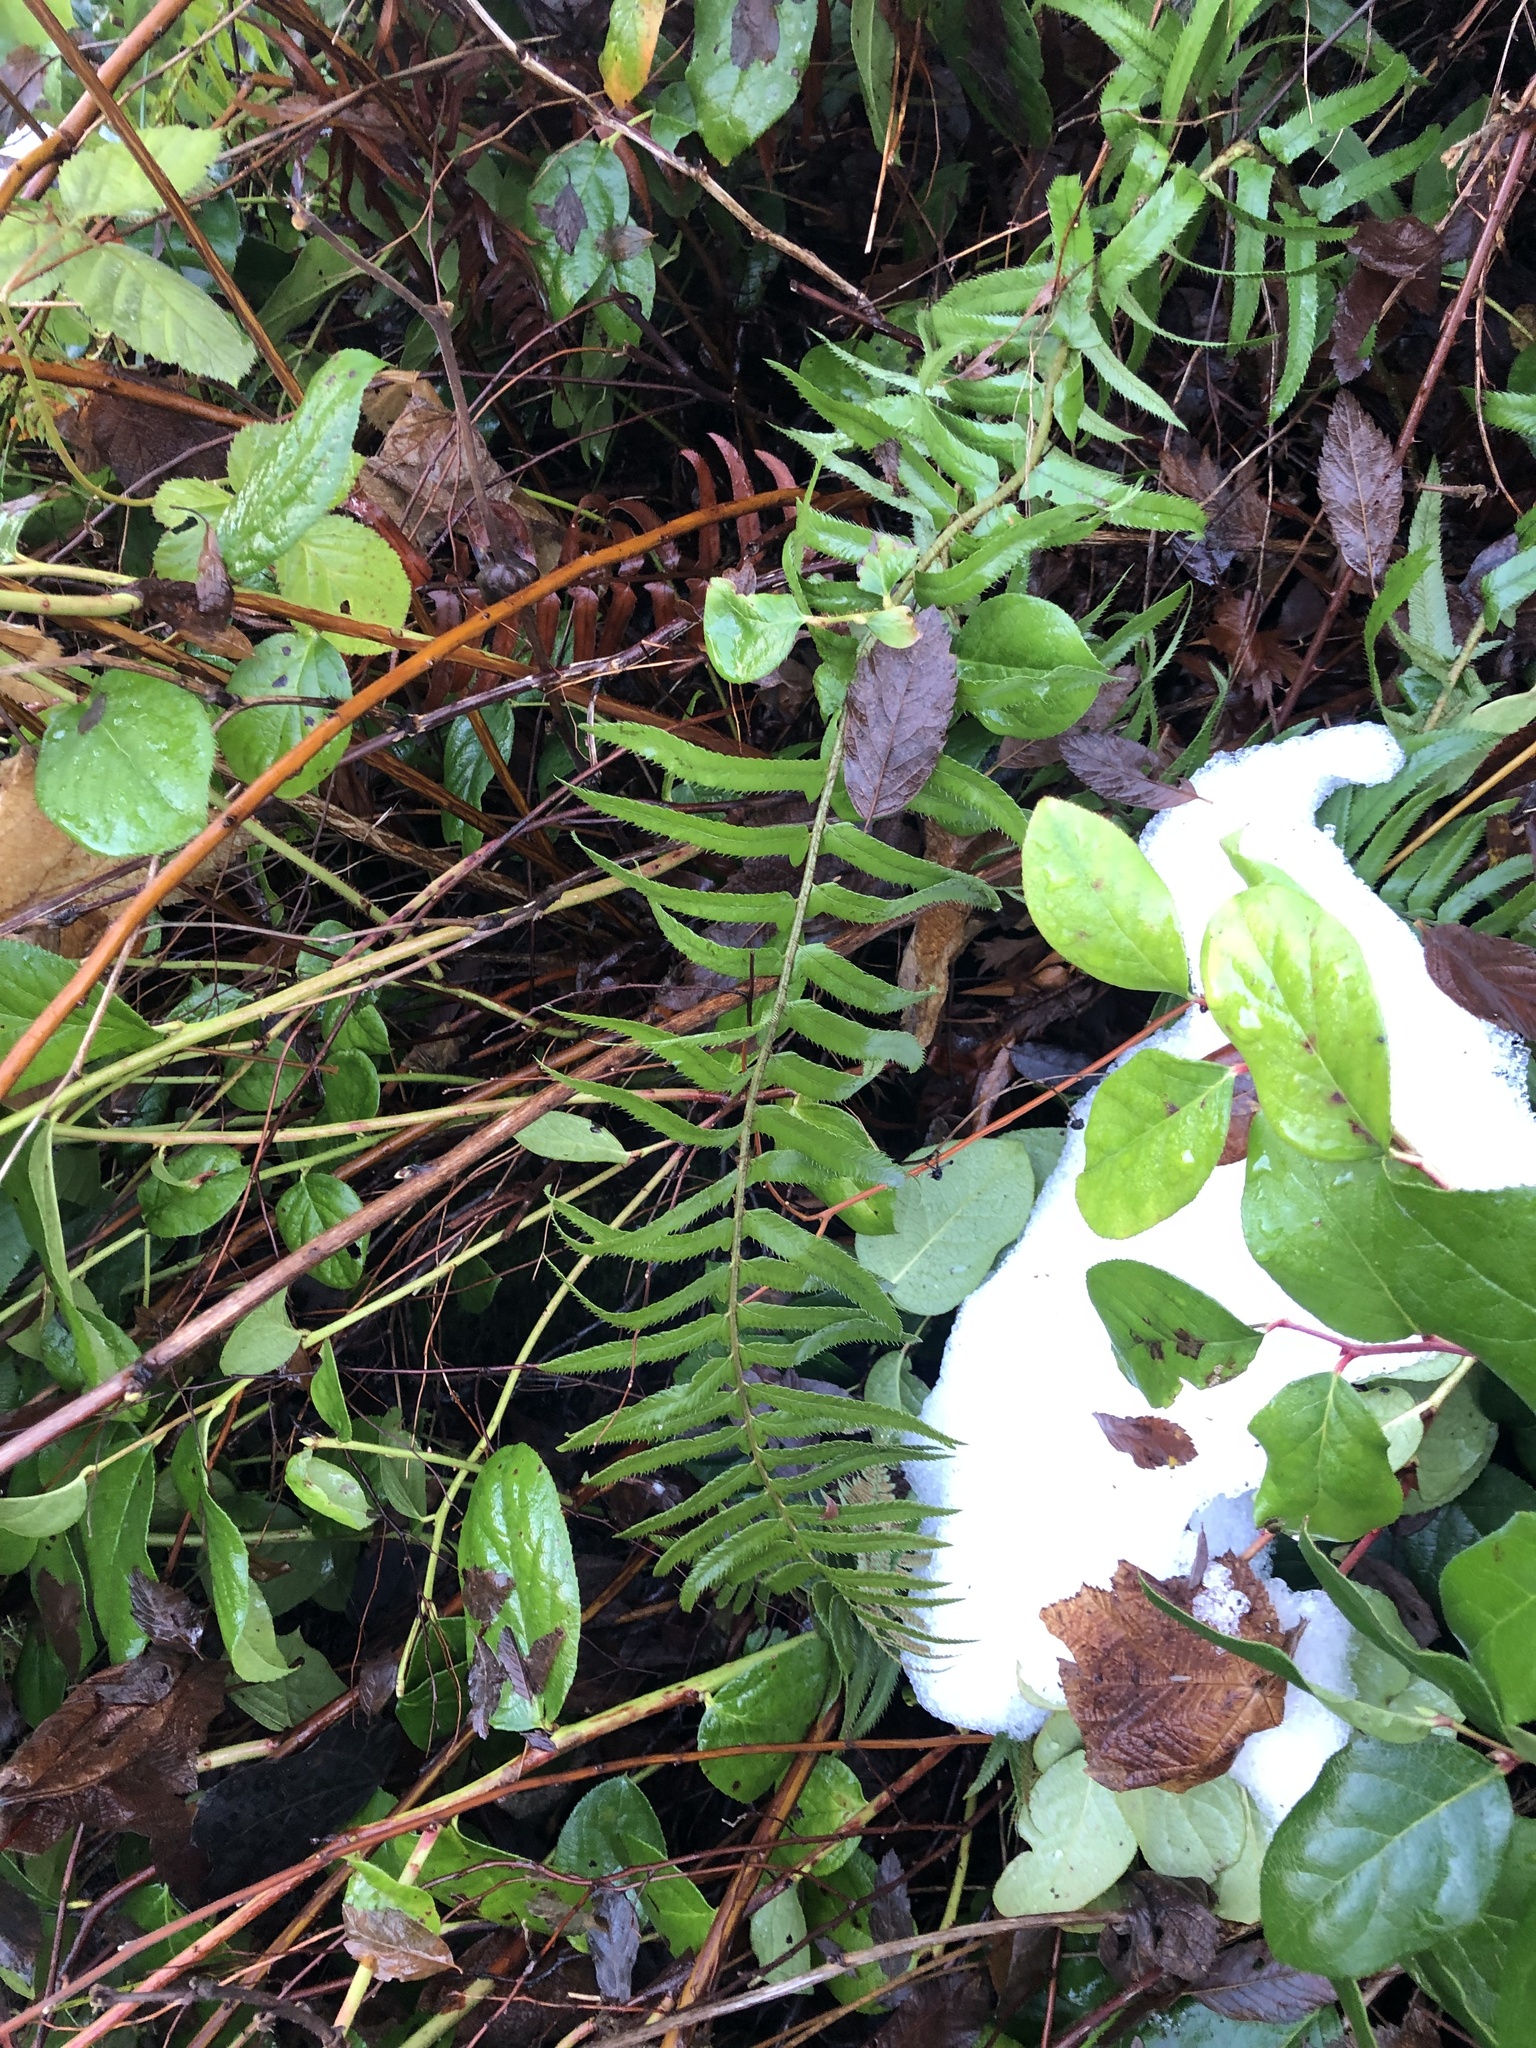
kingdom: Plantae
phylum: Tracheophyta
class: Polypodiopsida
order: Polypodiales
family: Dryopteridaceae
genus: Polystichum
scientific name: Polystichum munitum
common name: Western sword-fern
